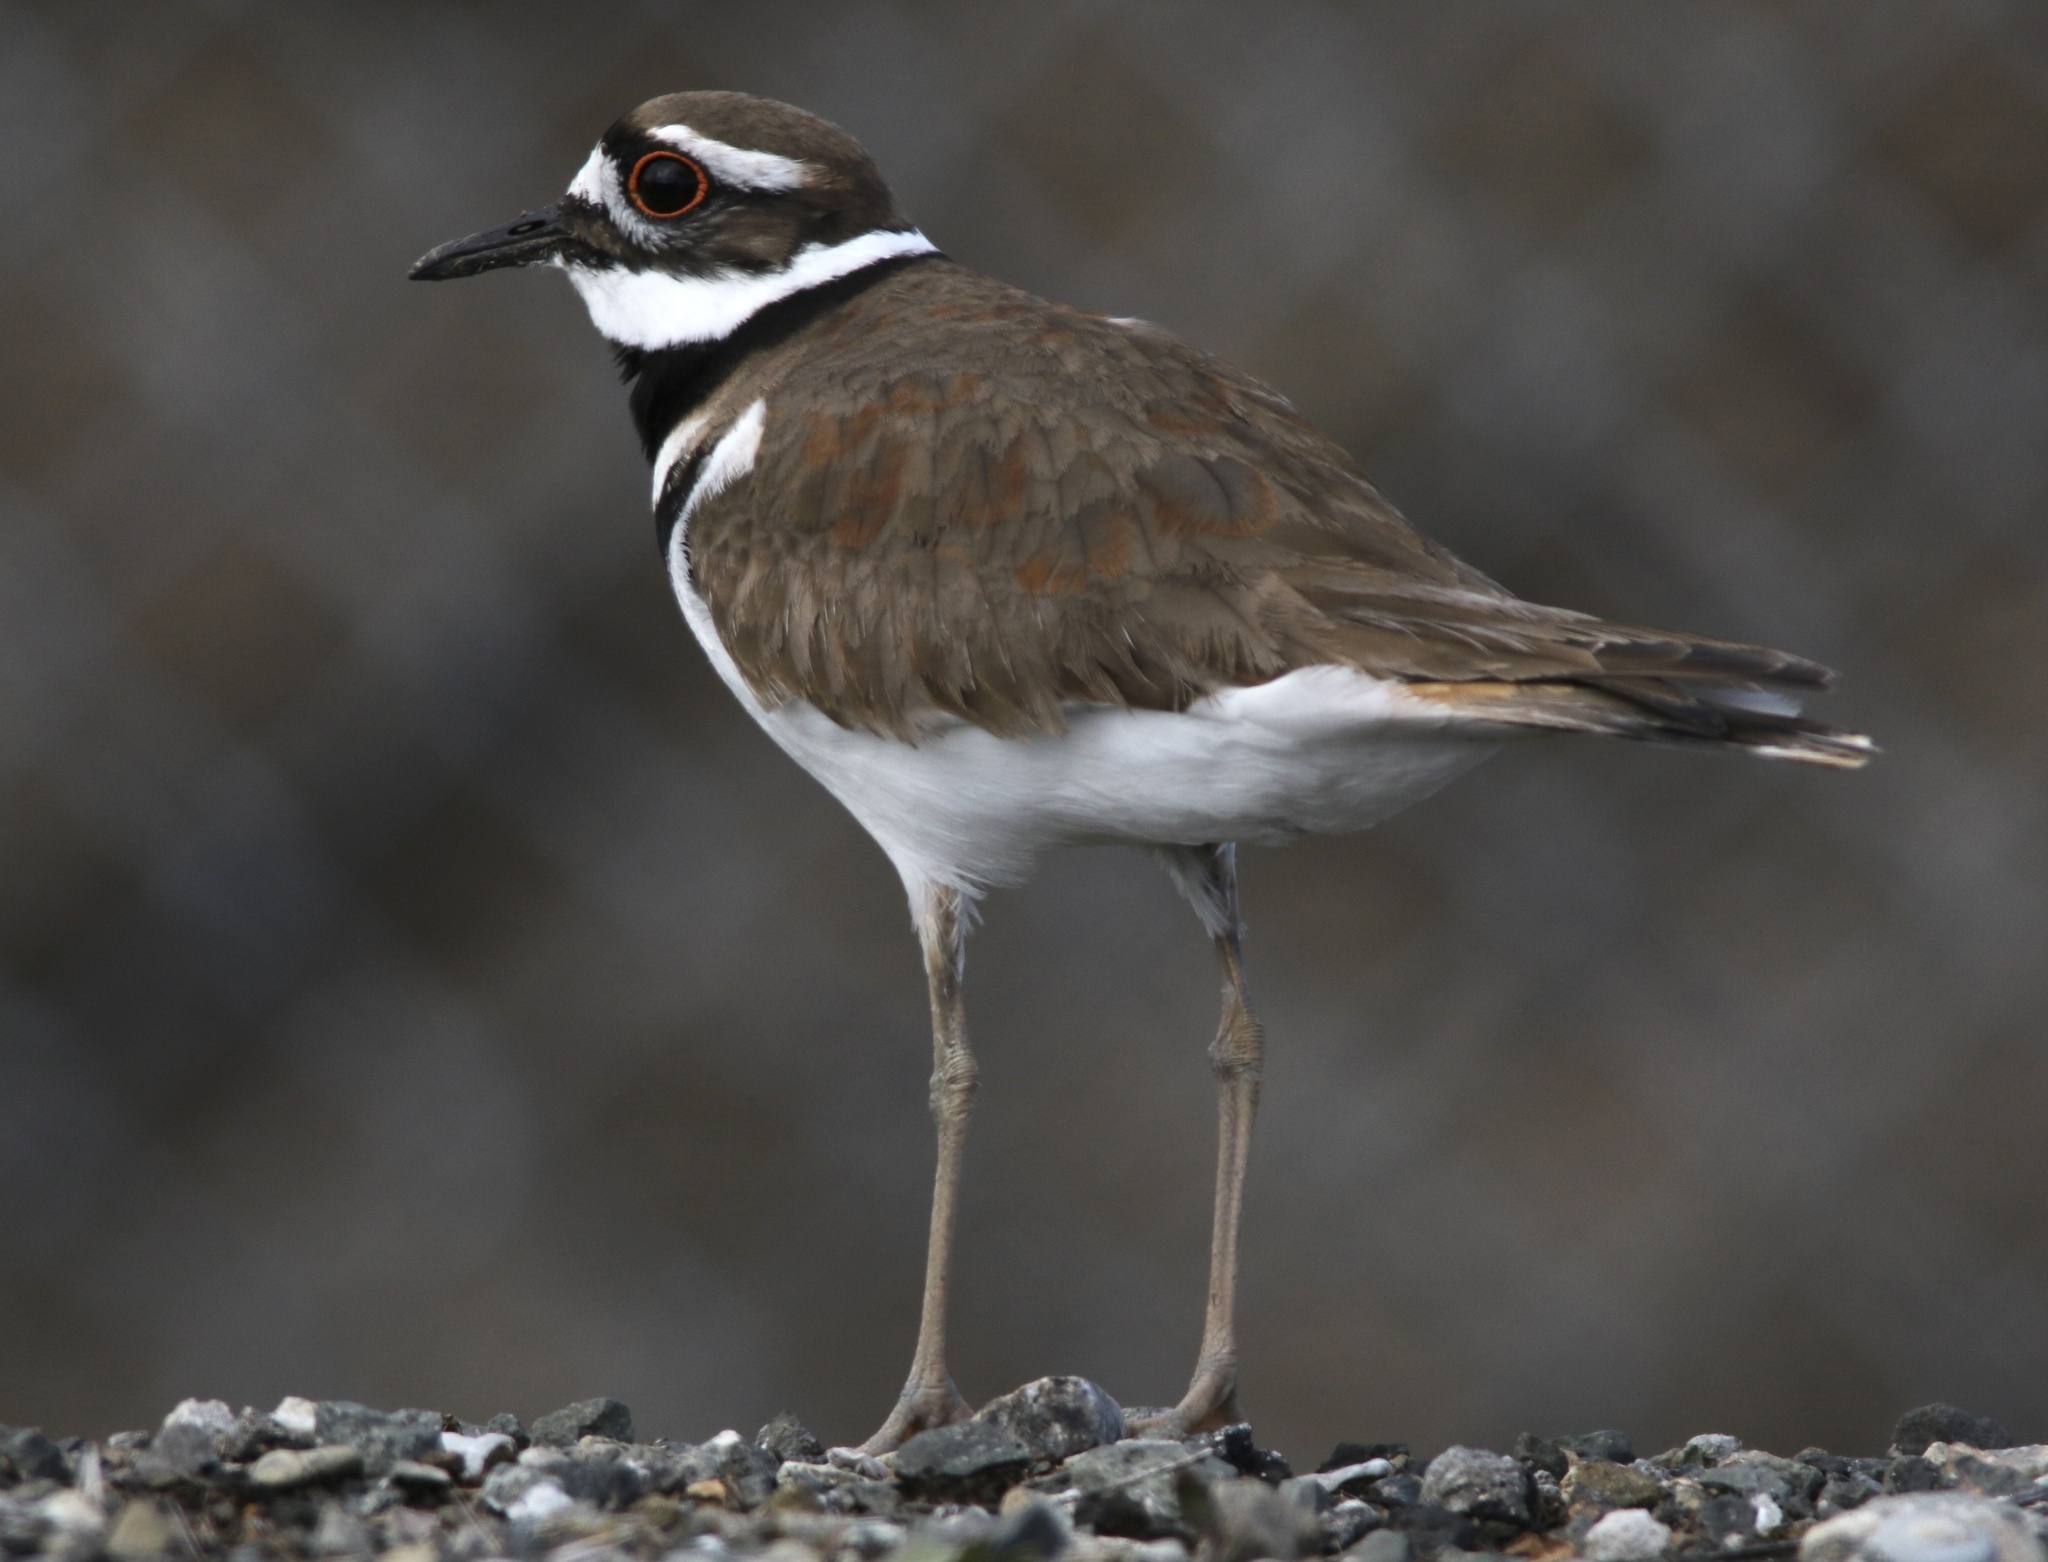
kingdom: Animalia
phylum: Chordata
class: Aves
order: Charadriiformes
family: Charadriidae
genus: Charadrius
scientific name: Charadrius vociferus
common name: Killdeer
